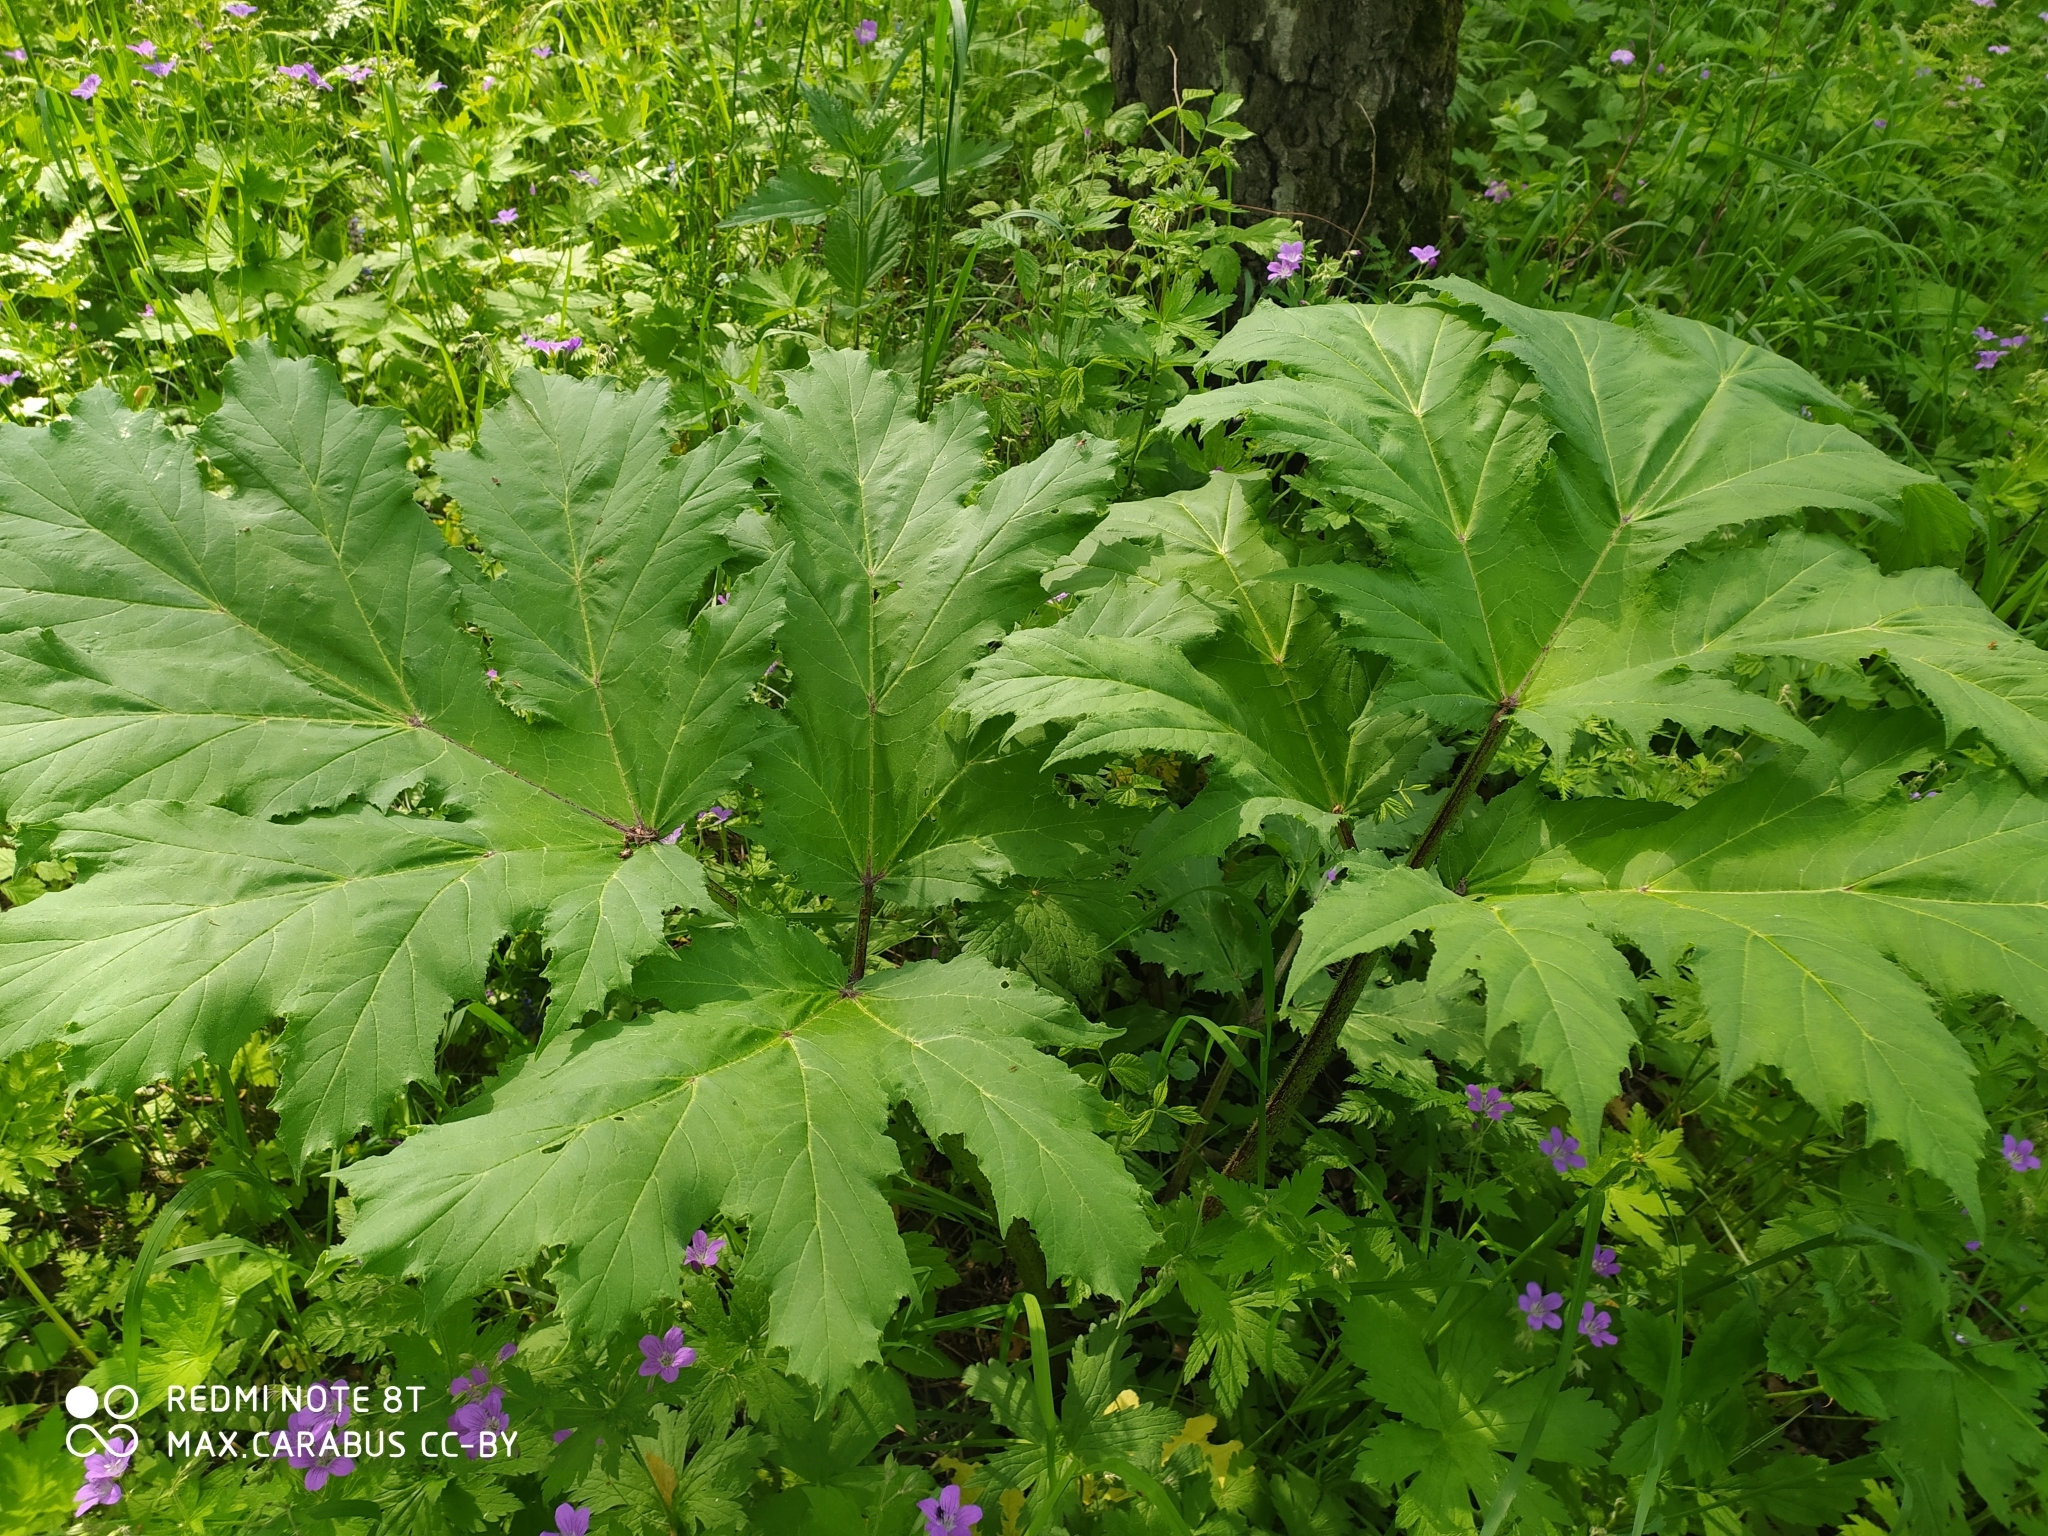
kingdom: Plantae
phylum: Tracheophyta
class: Magnoliopsida
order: Apiales
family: Apiaceae
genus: Heracleum
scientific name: Heracleum sosnowskyi
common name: Sosnowsky's hogweed
